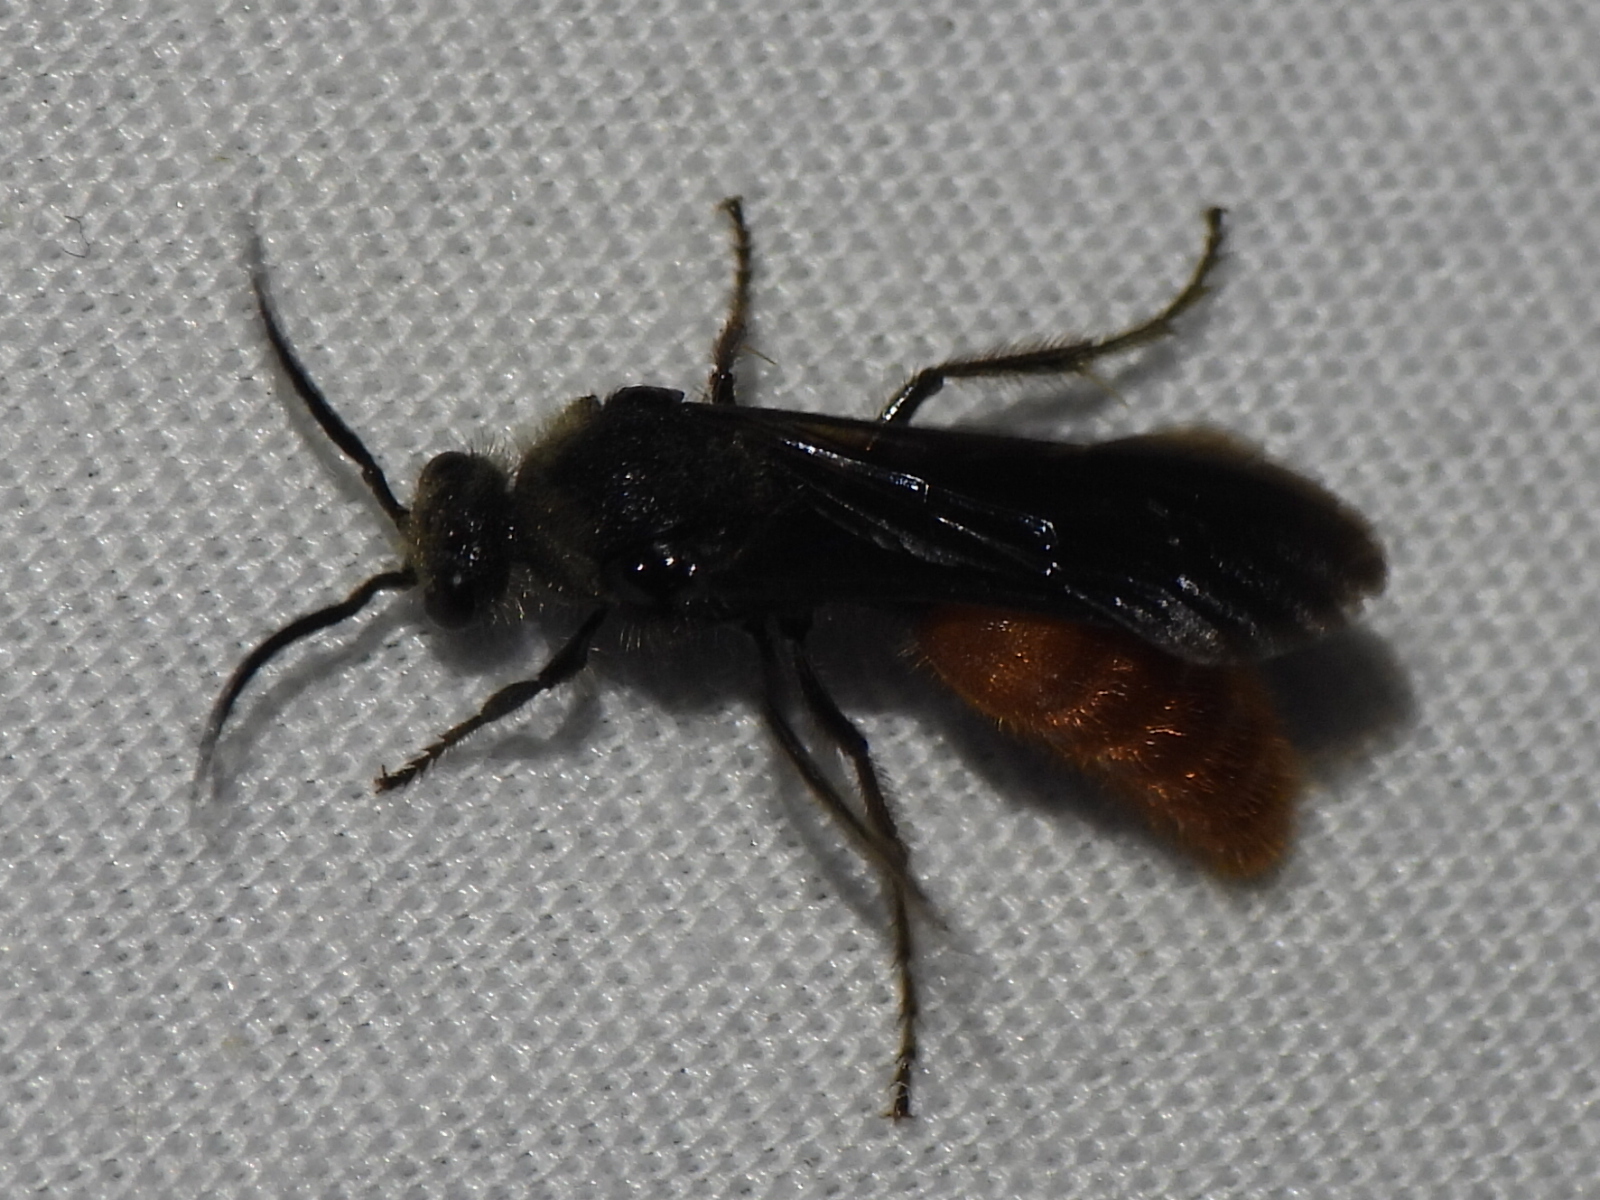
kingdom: Animalia
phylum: Arthropoda
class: Insecta
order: Hymenoptera
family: Mutillidae
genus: Timulla
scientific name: Timulla
